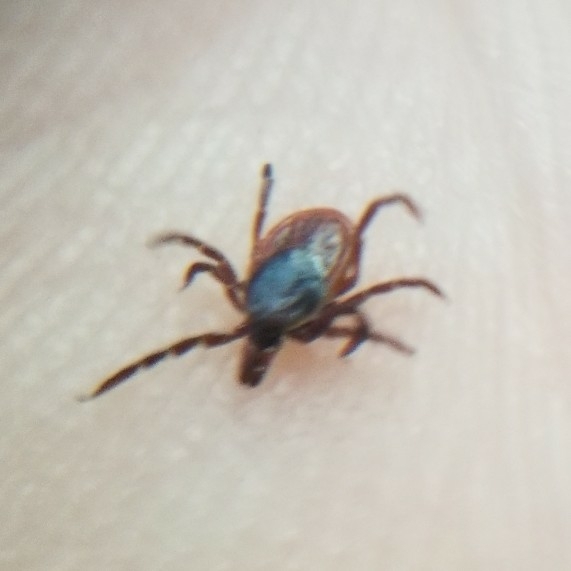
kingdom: Animalia
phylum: Arthropoda
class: Arachnida
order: Ixodida
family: Ixodidae
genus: Ixodes
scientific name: Ixodes scapularis
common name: Black legged tick
